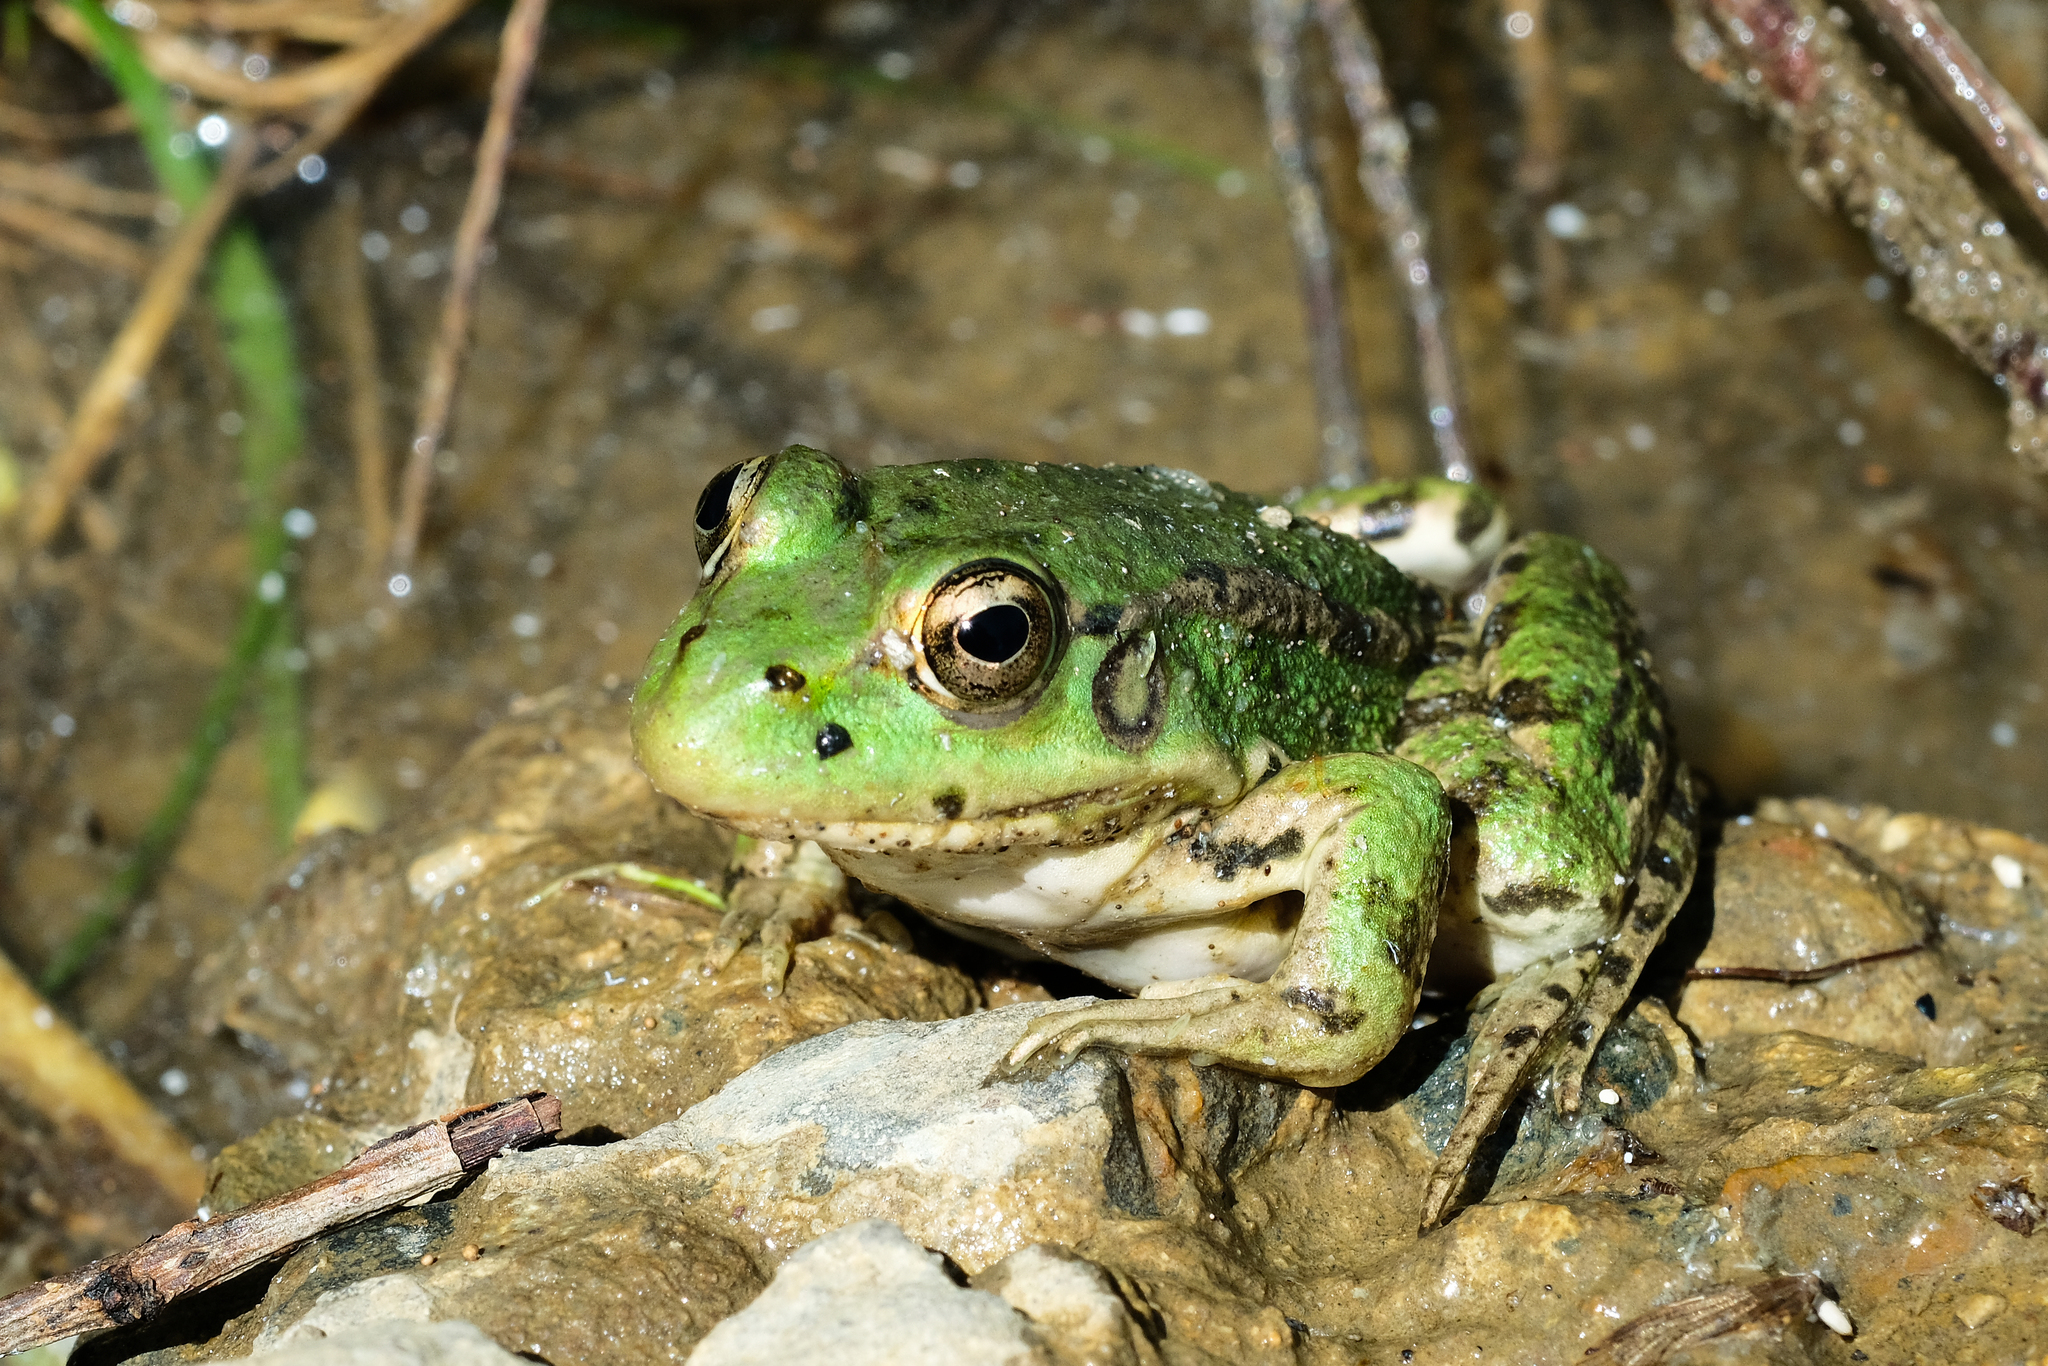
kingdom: Animalia
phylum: Chordata
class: Amphibia
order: Anura
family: Ranidae
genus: Pelophylax
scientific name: Pelophylax ridibundus
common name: Marsh frog
